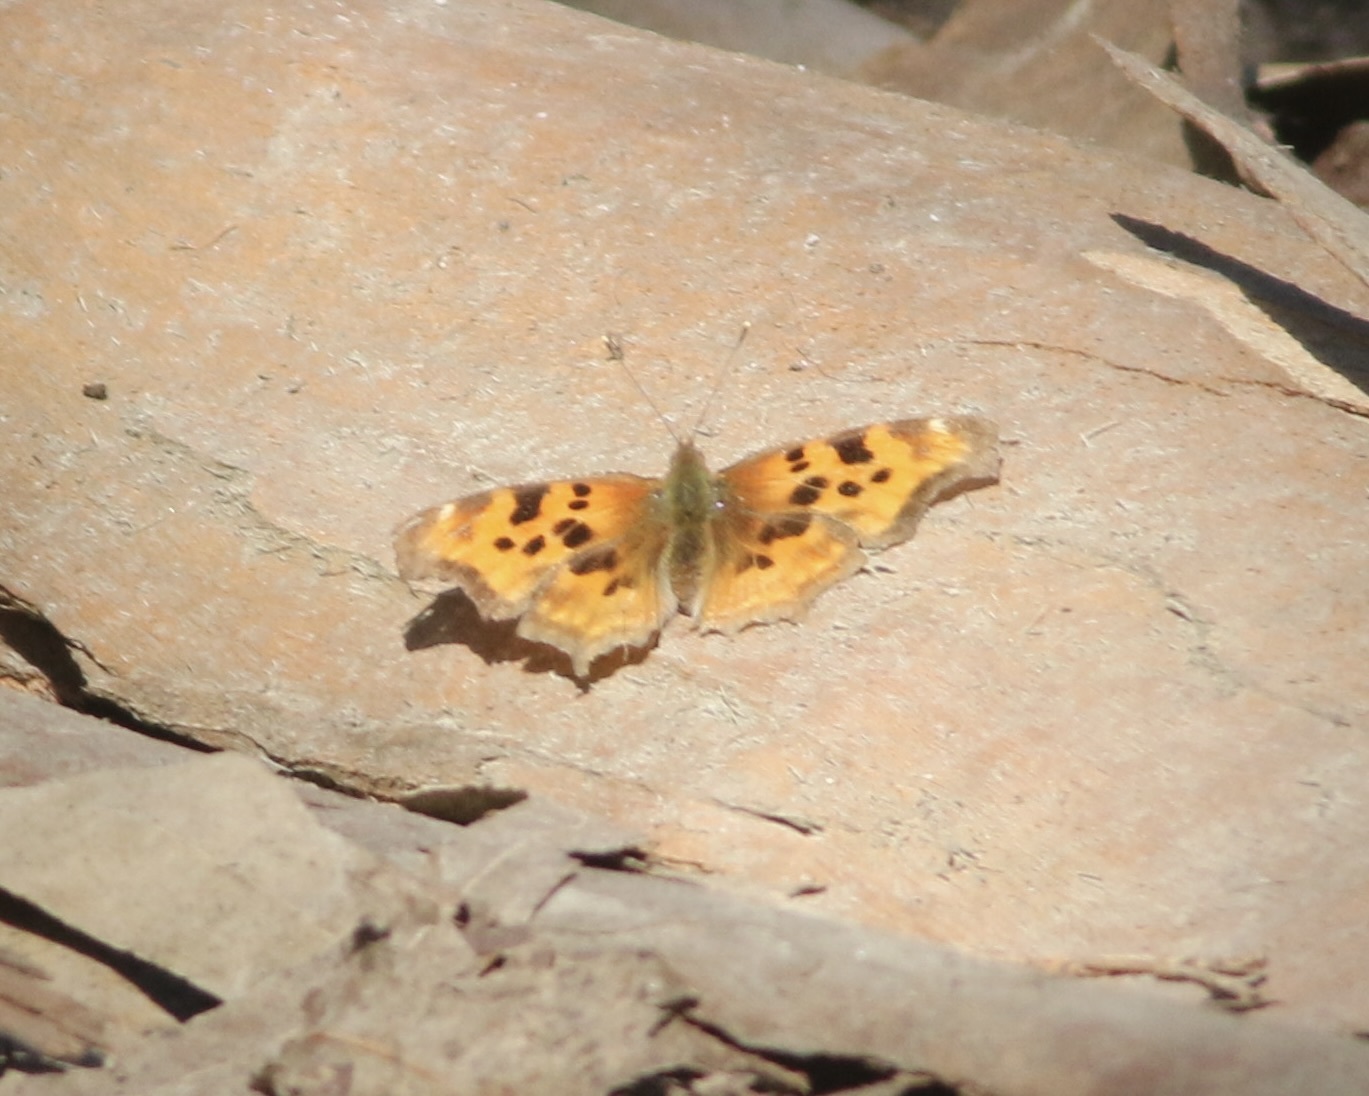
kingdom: Animalia
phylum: Arthropoda
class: Insecta
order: Lepidoptera
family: Nymphalidae
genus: Polygonia
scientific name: Polygonia satyrus
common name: Satyr angle wing
